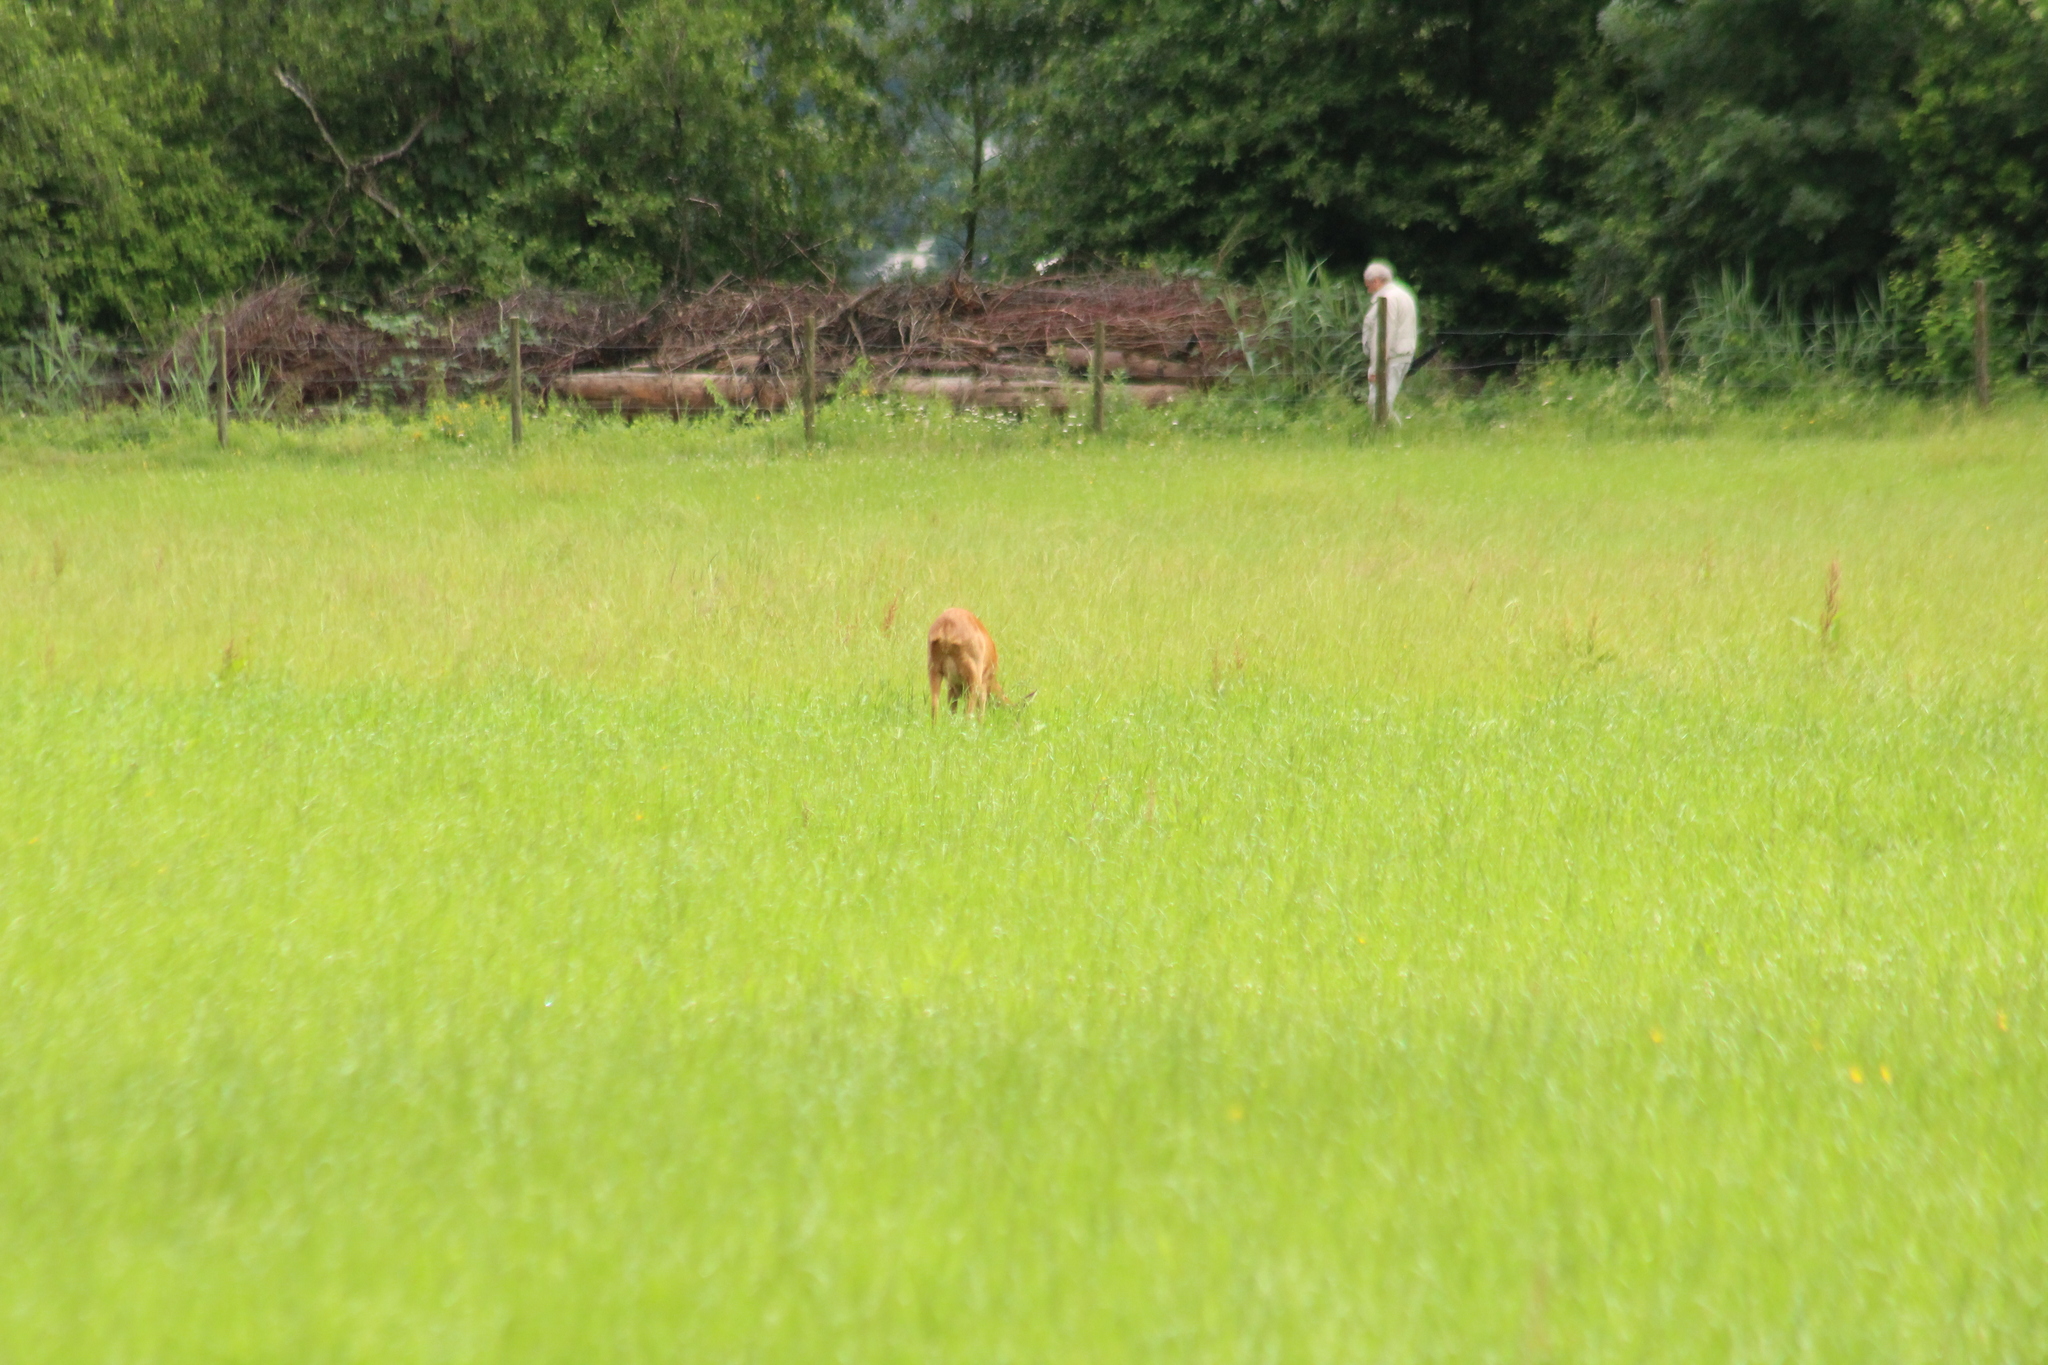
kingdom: Animalia
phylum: Chordata
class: Mammalia
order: Artiodactyla
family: Cervidae
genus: Capreolus
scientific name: Capreolus capreolus
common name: Western roe deer
